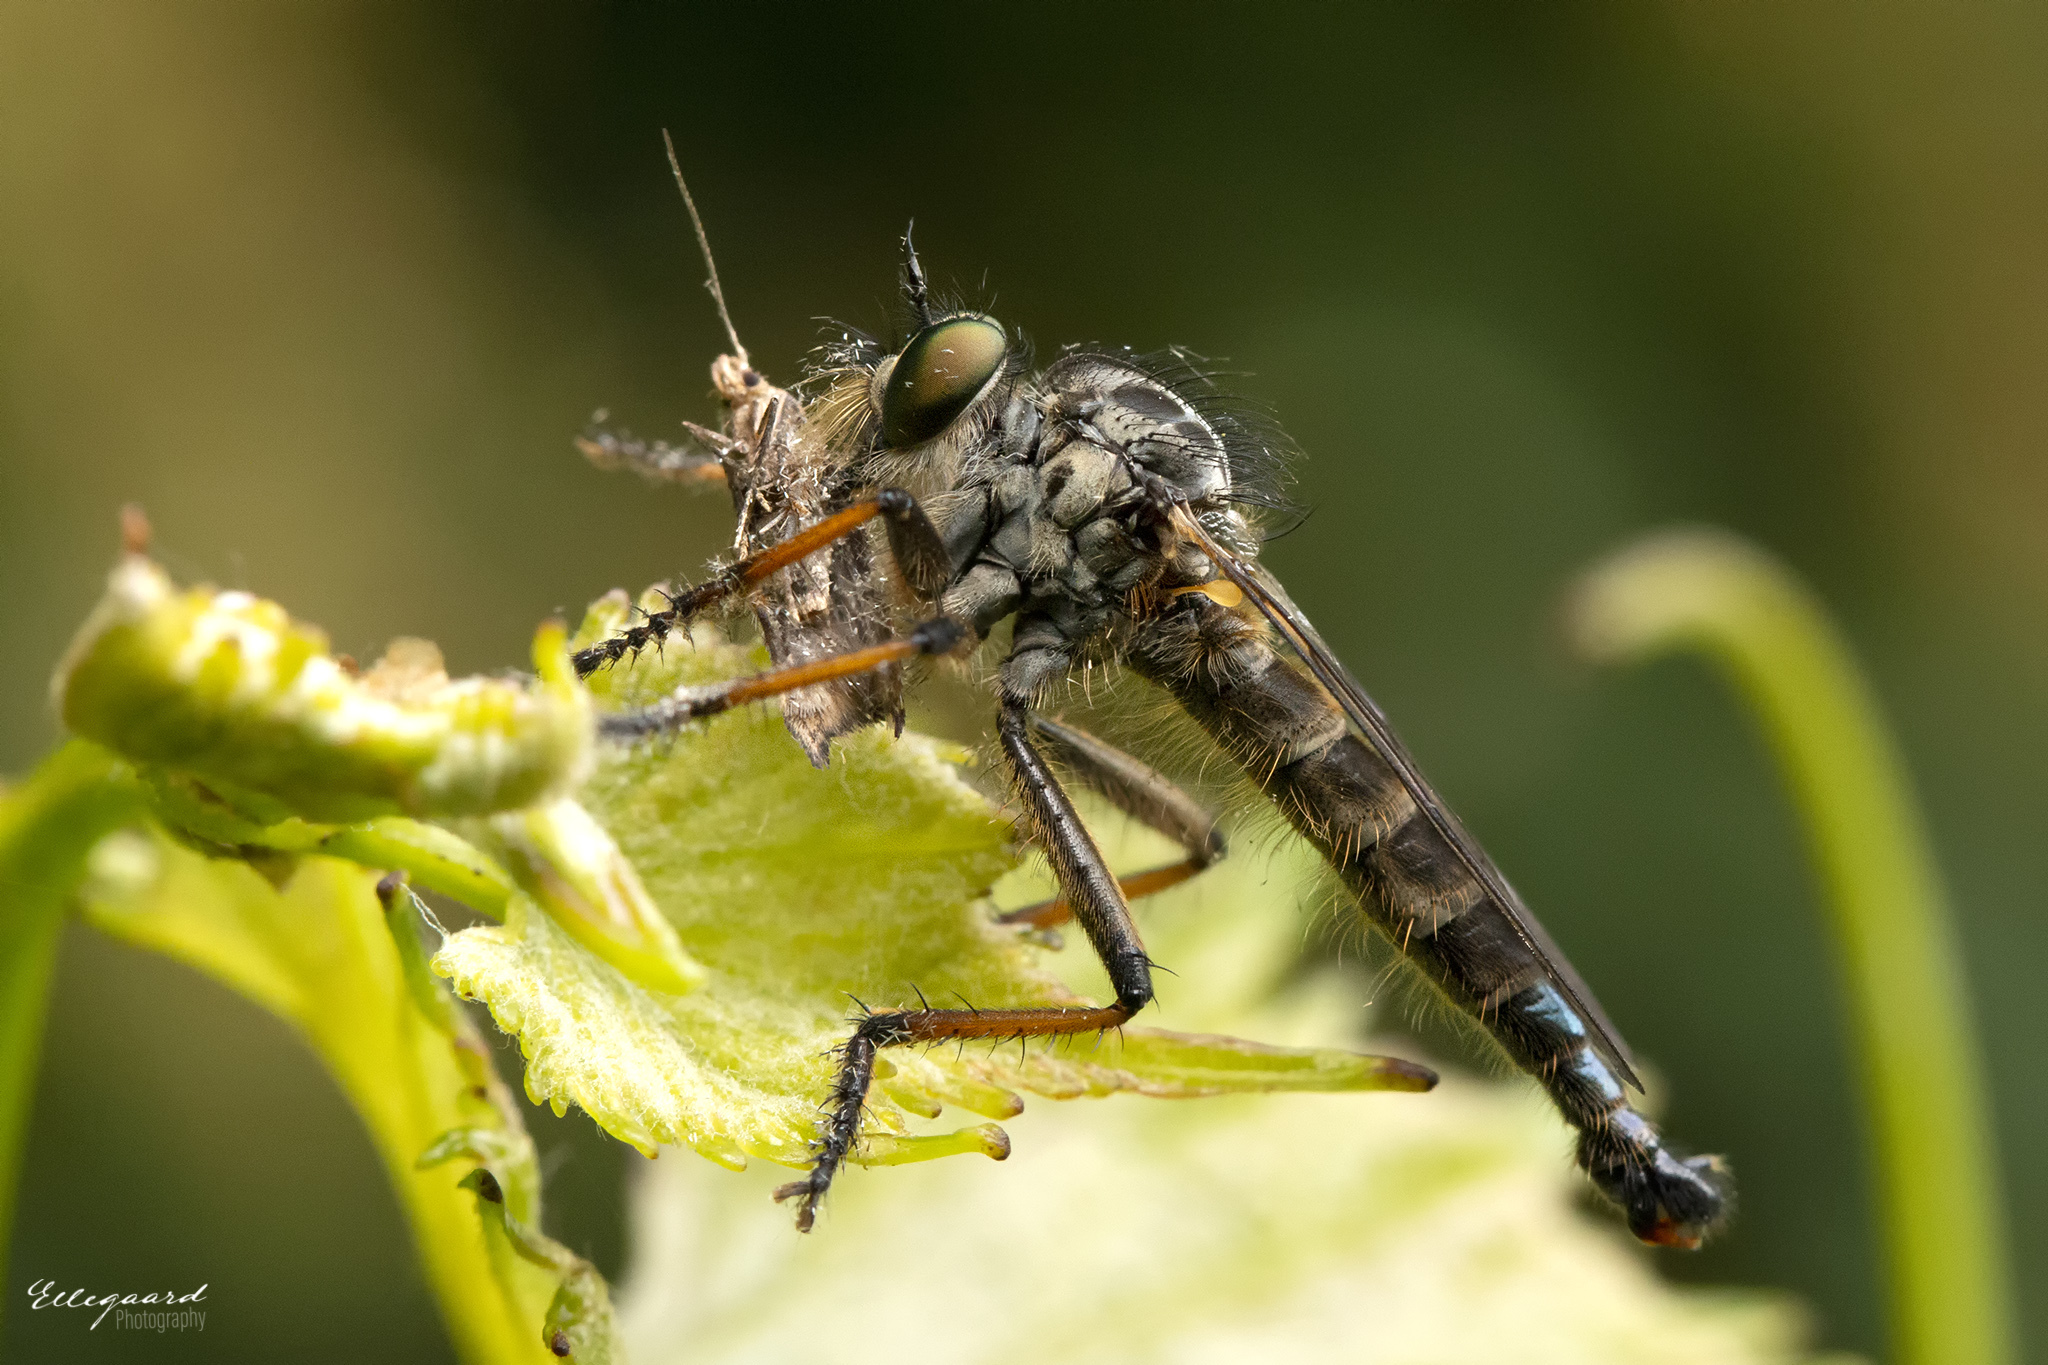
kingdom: Animalia
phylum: Arthropoda
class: Insecta
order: Diptera
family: Asilidae
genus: Neoitamus
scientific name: Neoitamus cyanurus
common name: Common awl robberfly
